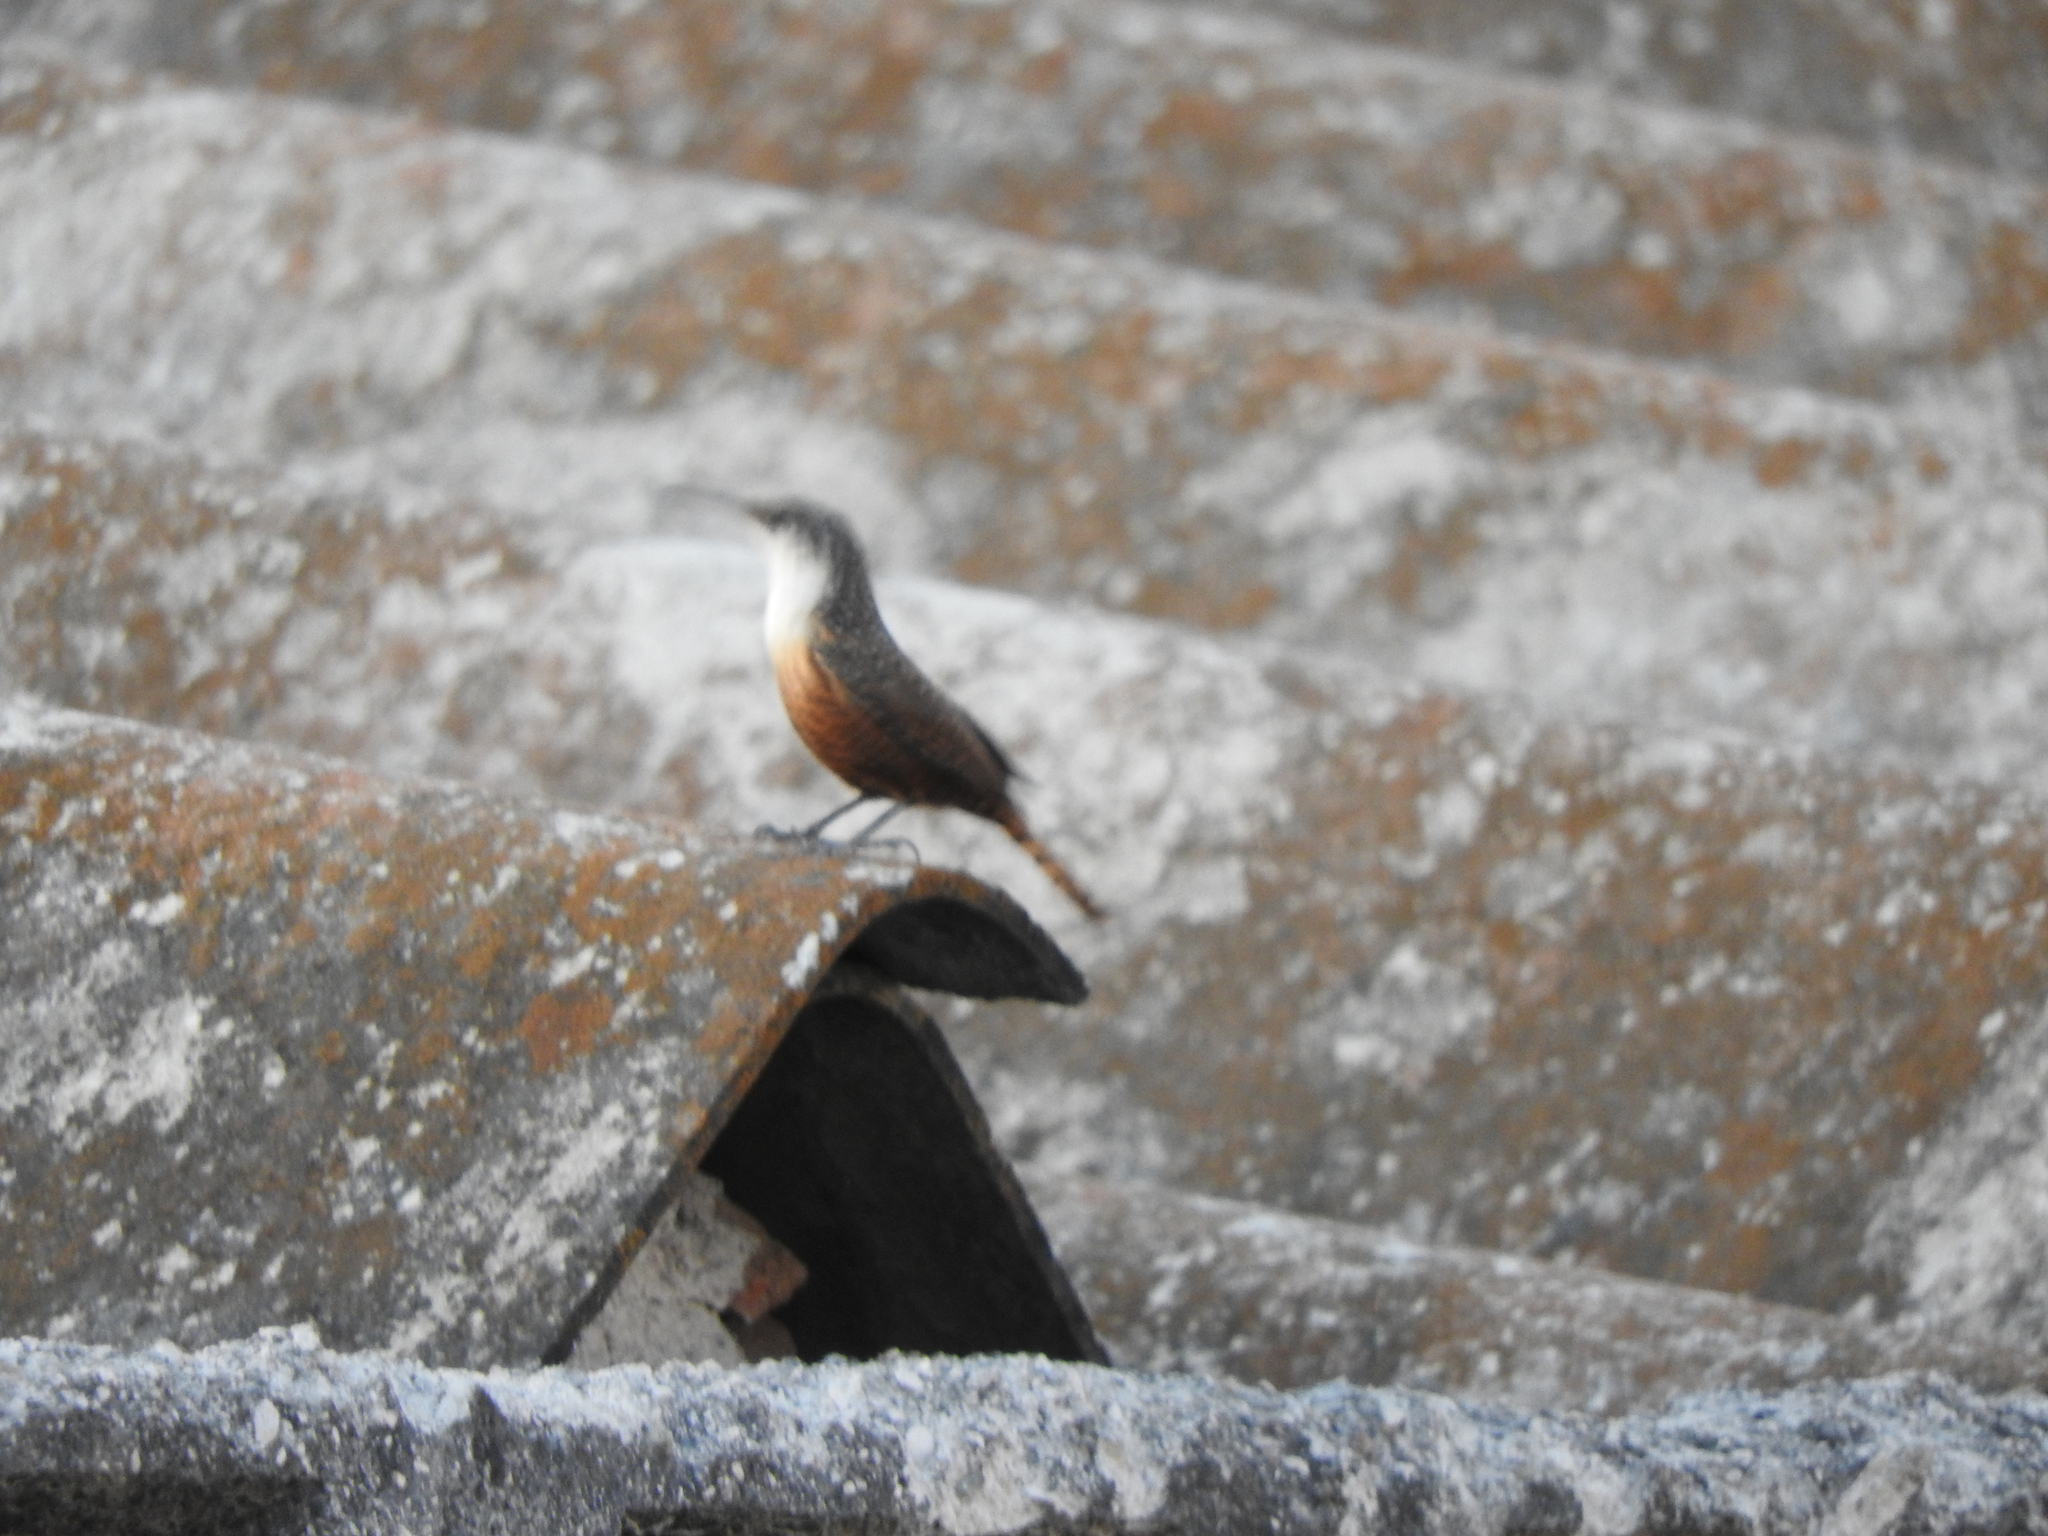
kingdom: Animalia
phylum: Chordata
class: Aves
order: Passeriformes
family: Troglodytidae
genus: Catherpes
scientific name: Catherpes mexicanus
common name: Canyon wren
